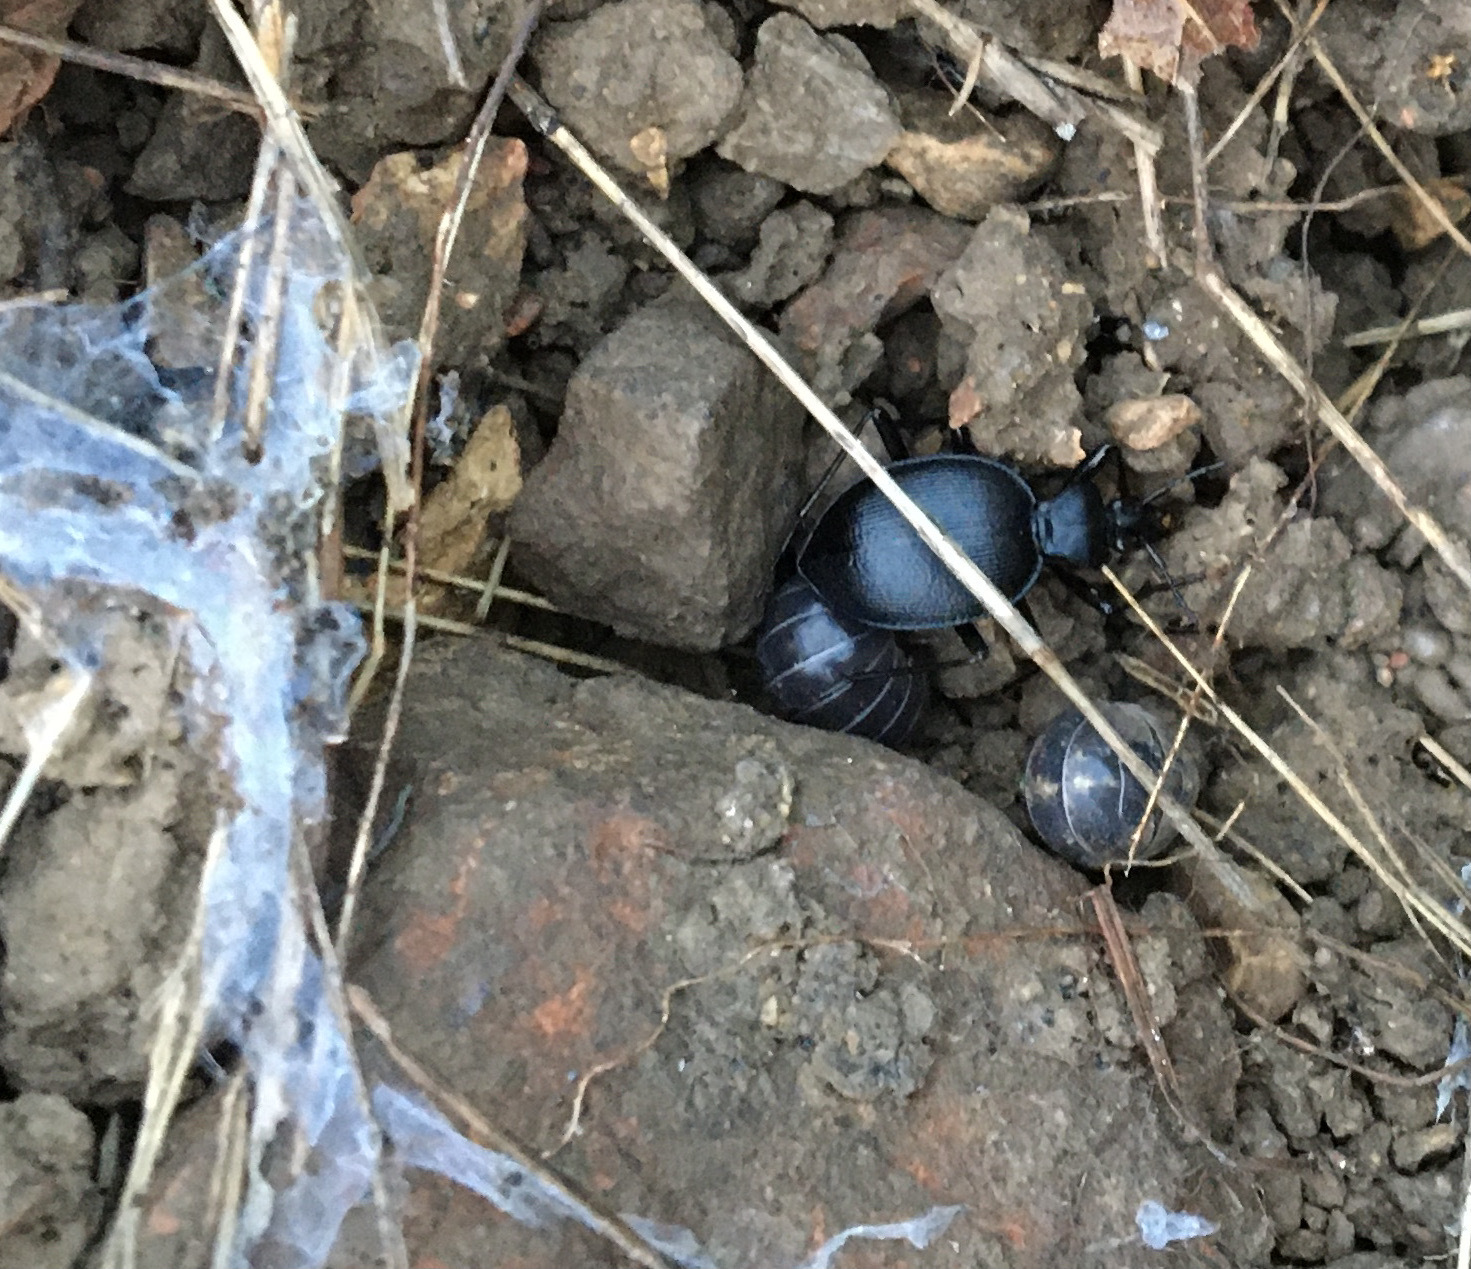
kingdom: Animalia
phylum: Arthropoda
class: Malacostraca
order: Isopoda
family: Armadillidiidae
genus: Armadillidium
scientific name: Armadillidium vulgare
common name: Common pill woodlouse
